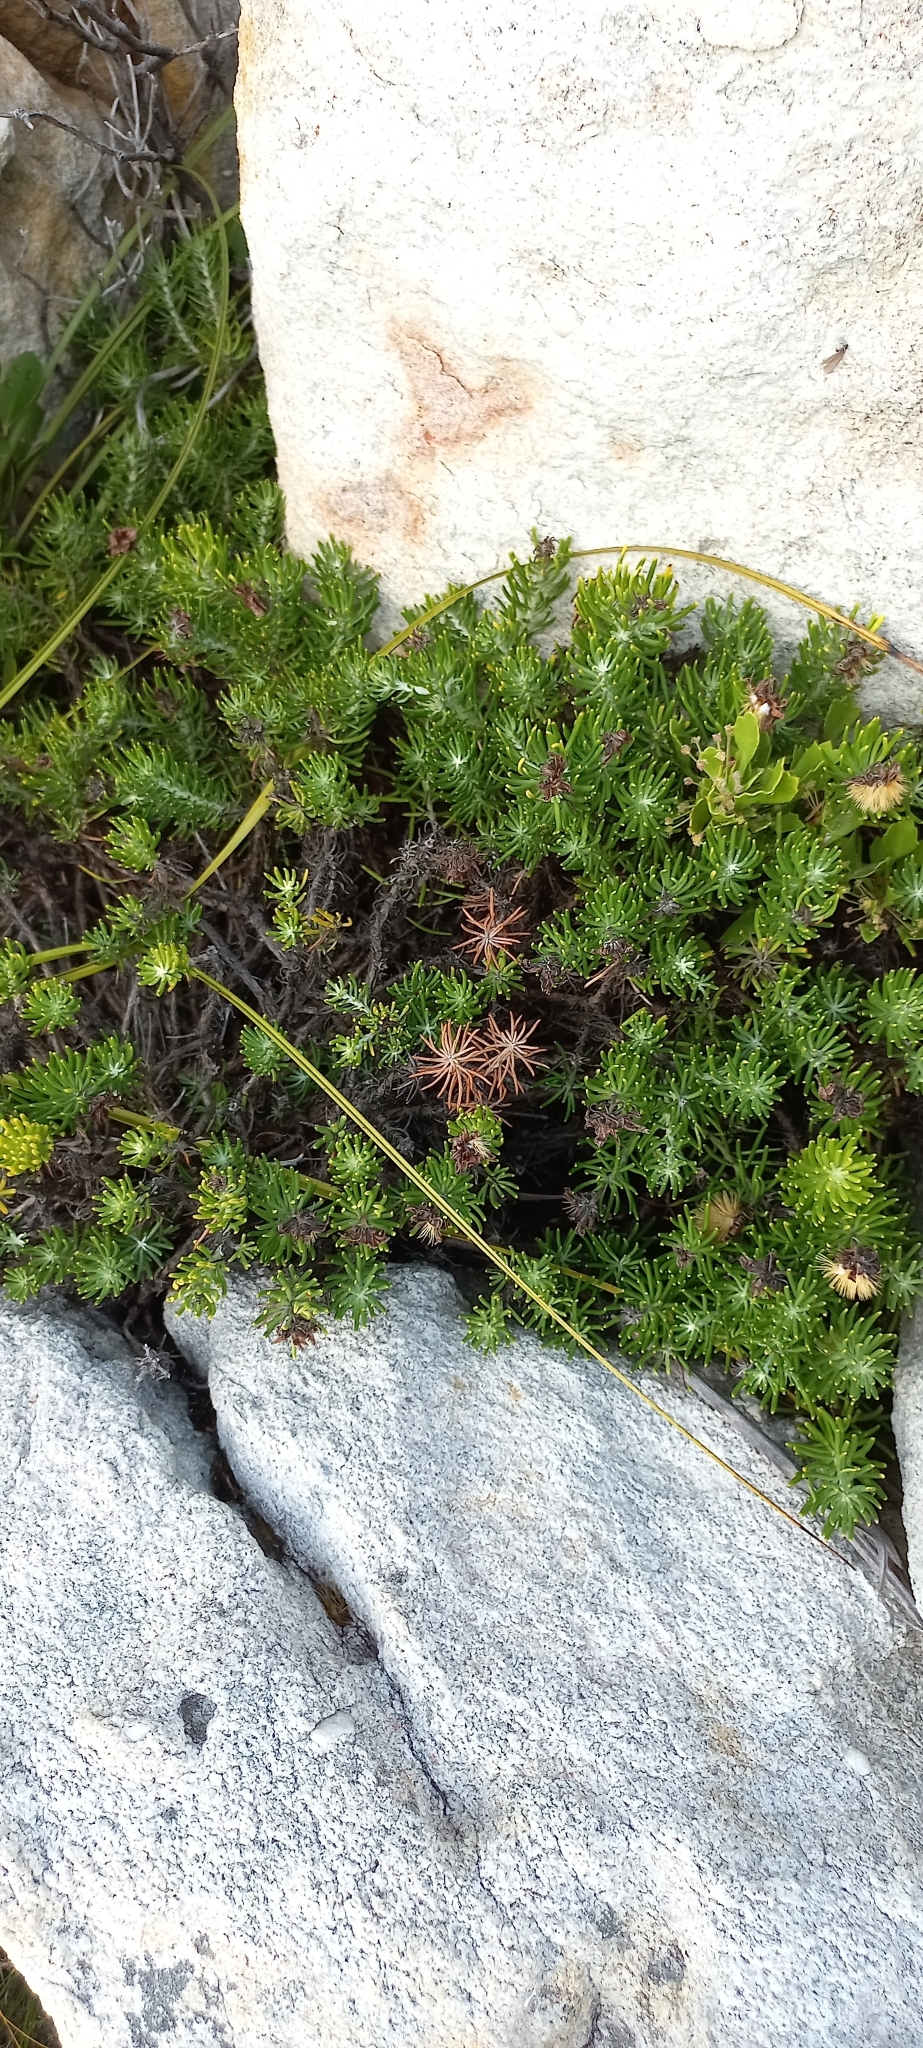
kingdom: Plantae
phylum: Tracheophyta
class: Magnoliopsida
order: Asterales
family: Asteraceae
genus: Heterolepis
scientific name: Heterolepis aliena
